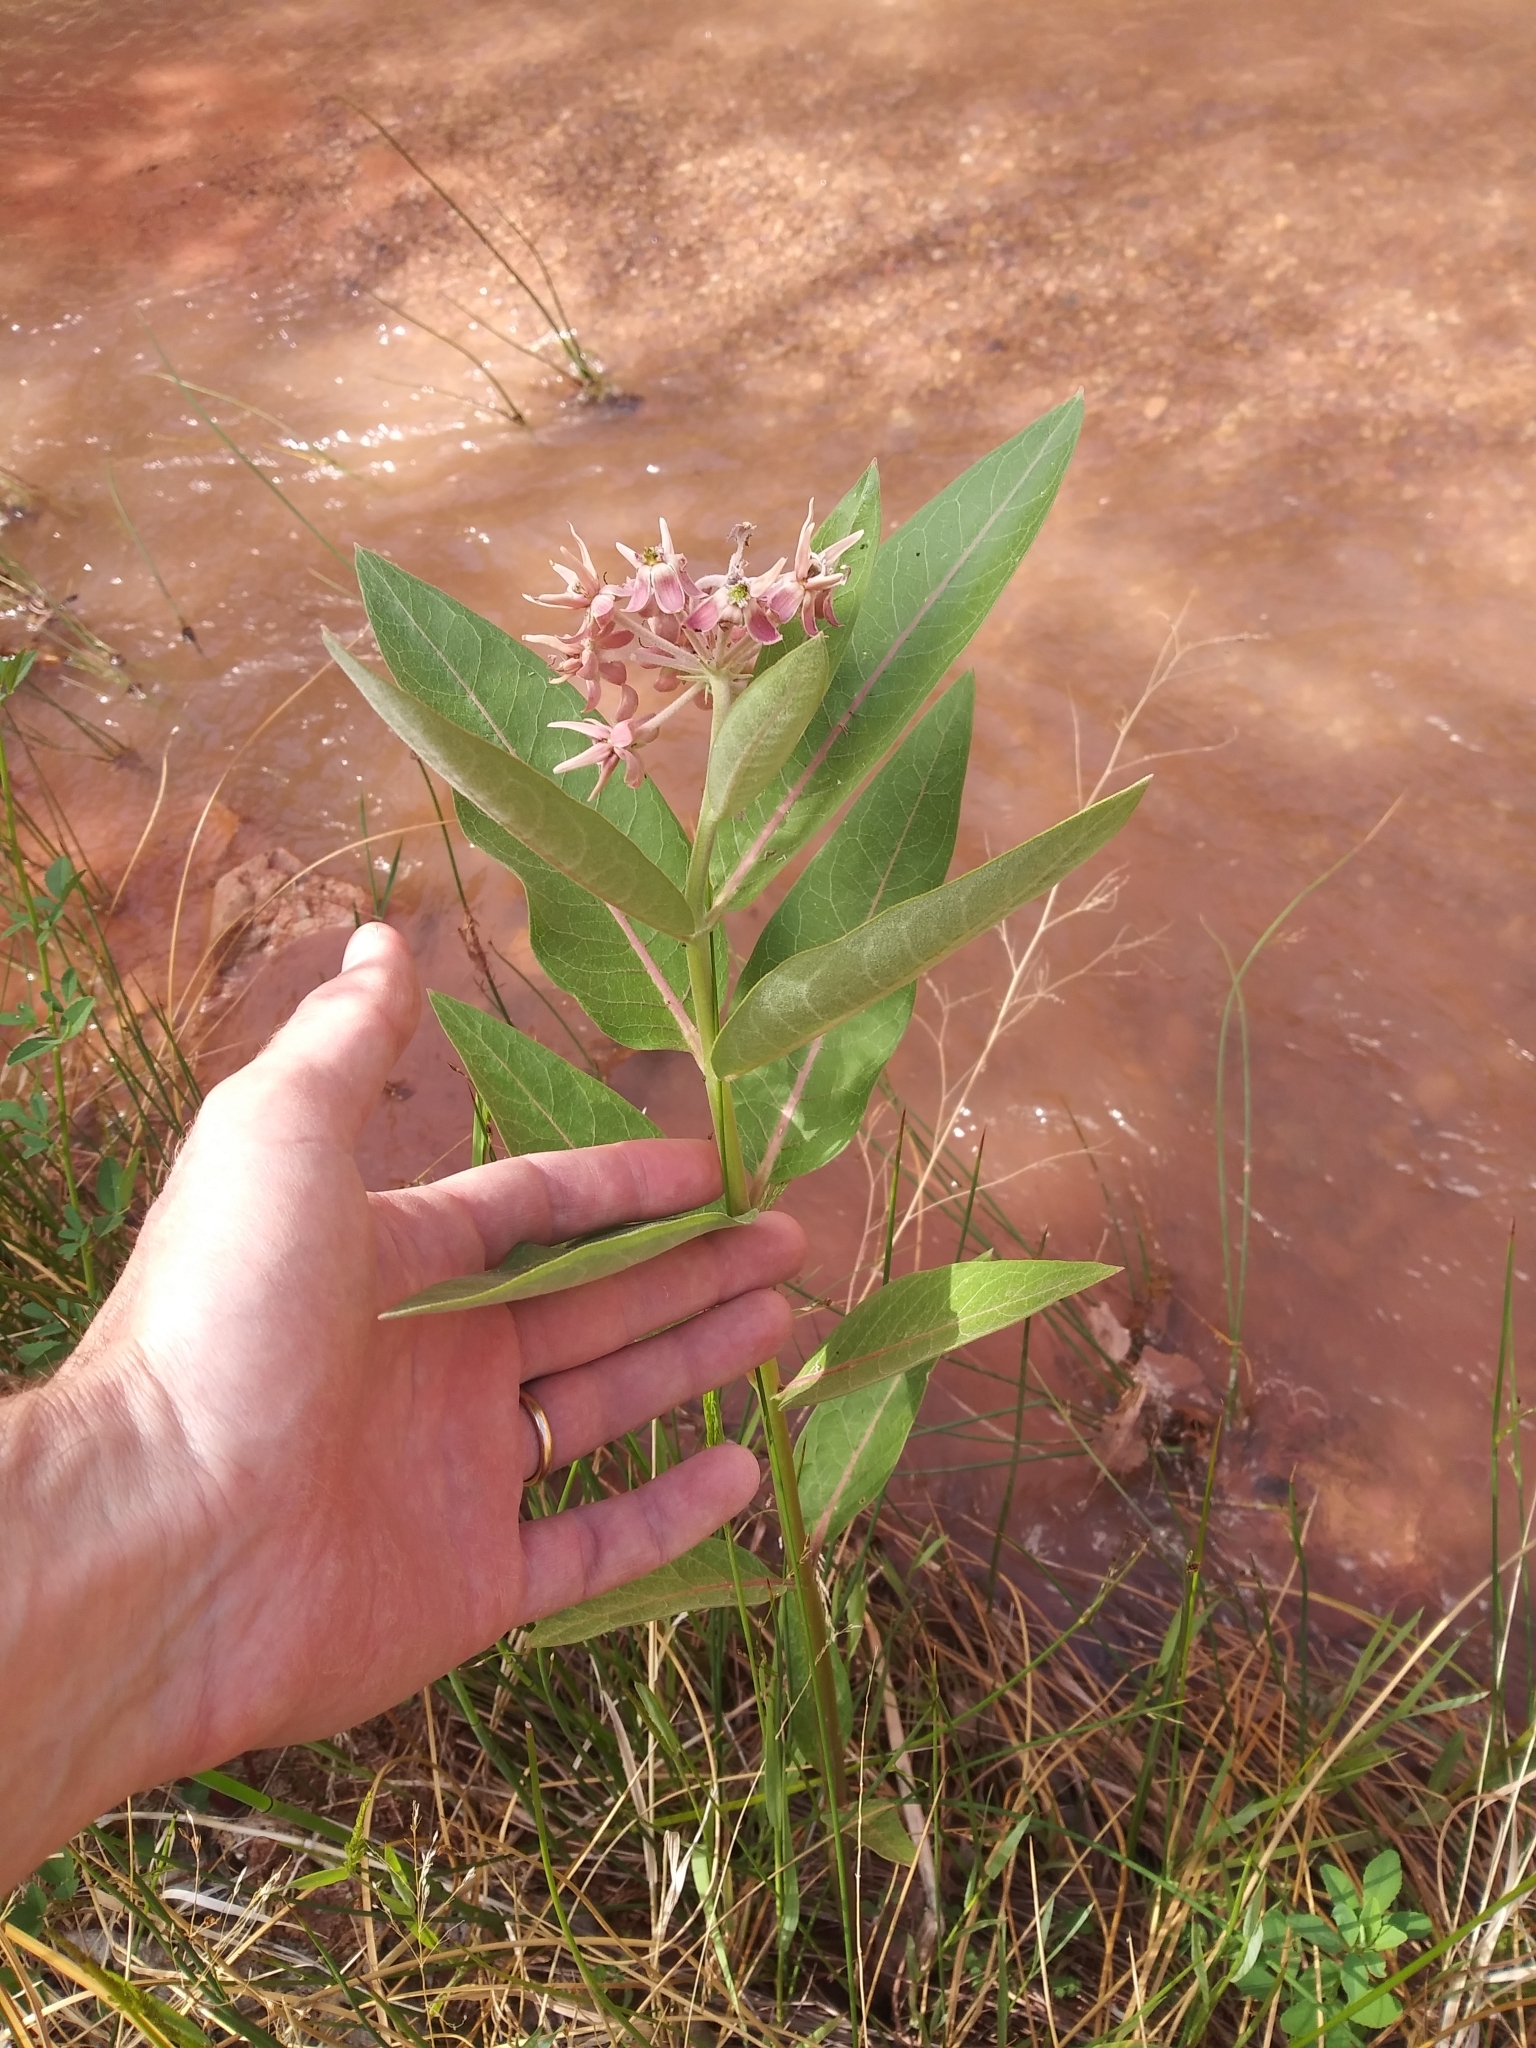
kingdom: Plantae
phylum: Tracheophyta
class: Magnoliopsida
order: Gentianales
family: Apocynaceae
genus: Asclepias
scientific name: Asclepias speciosa
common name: Showy milkweed
